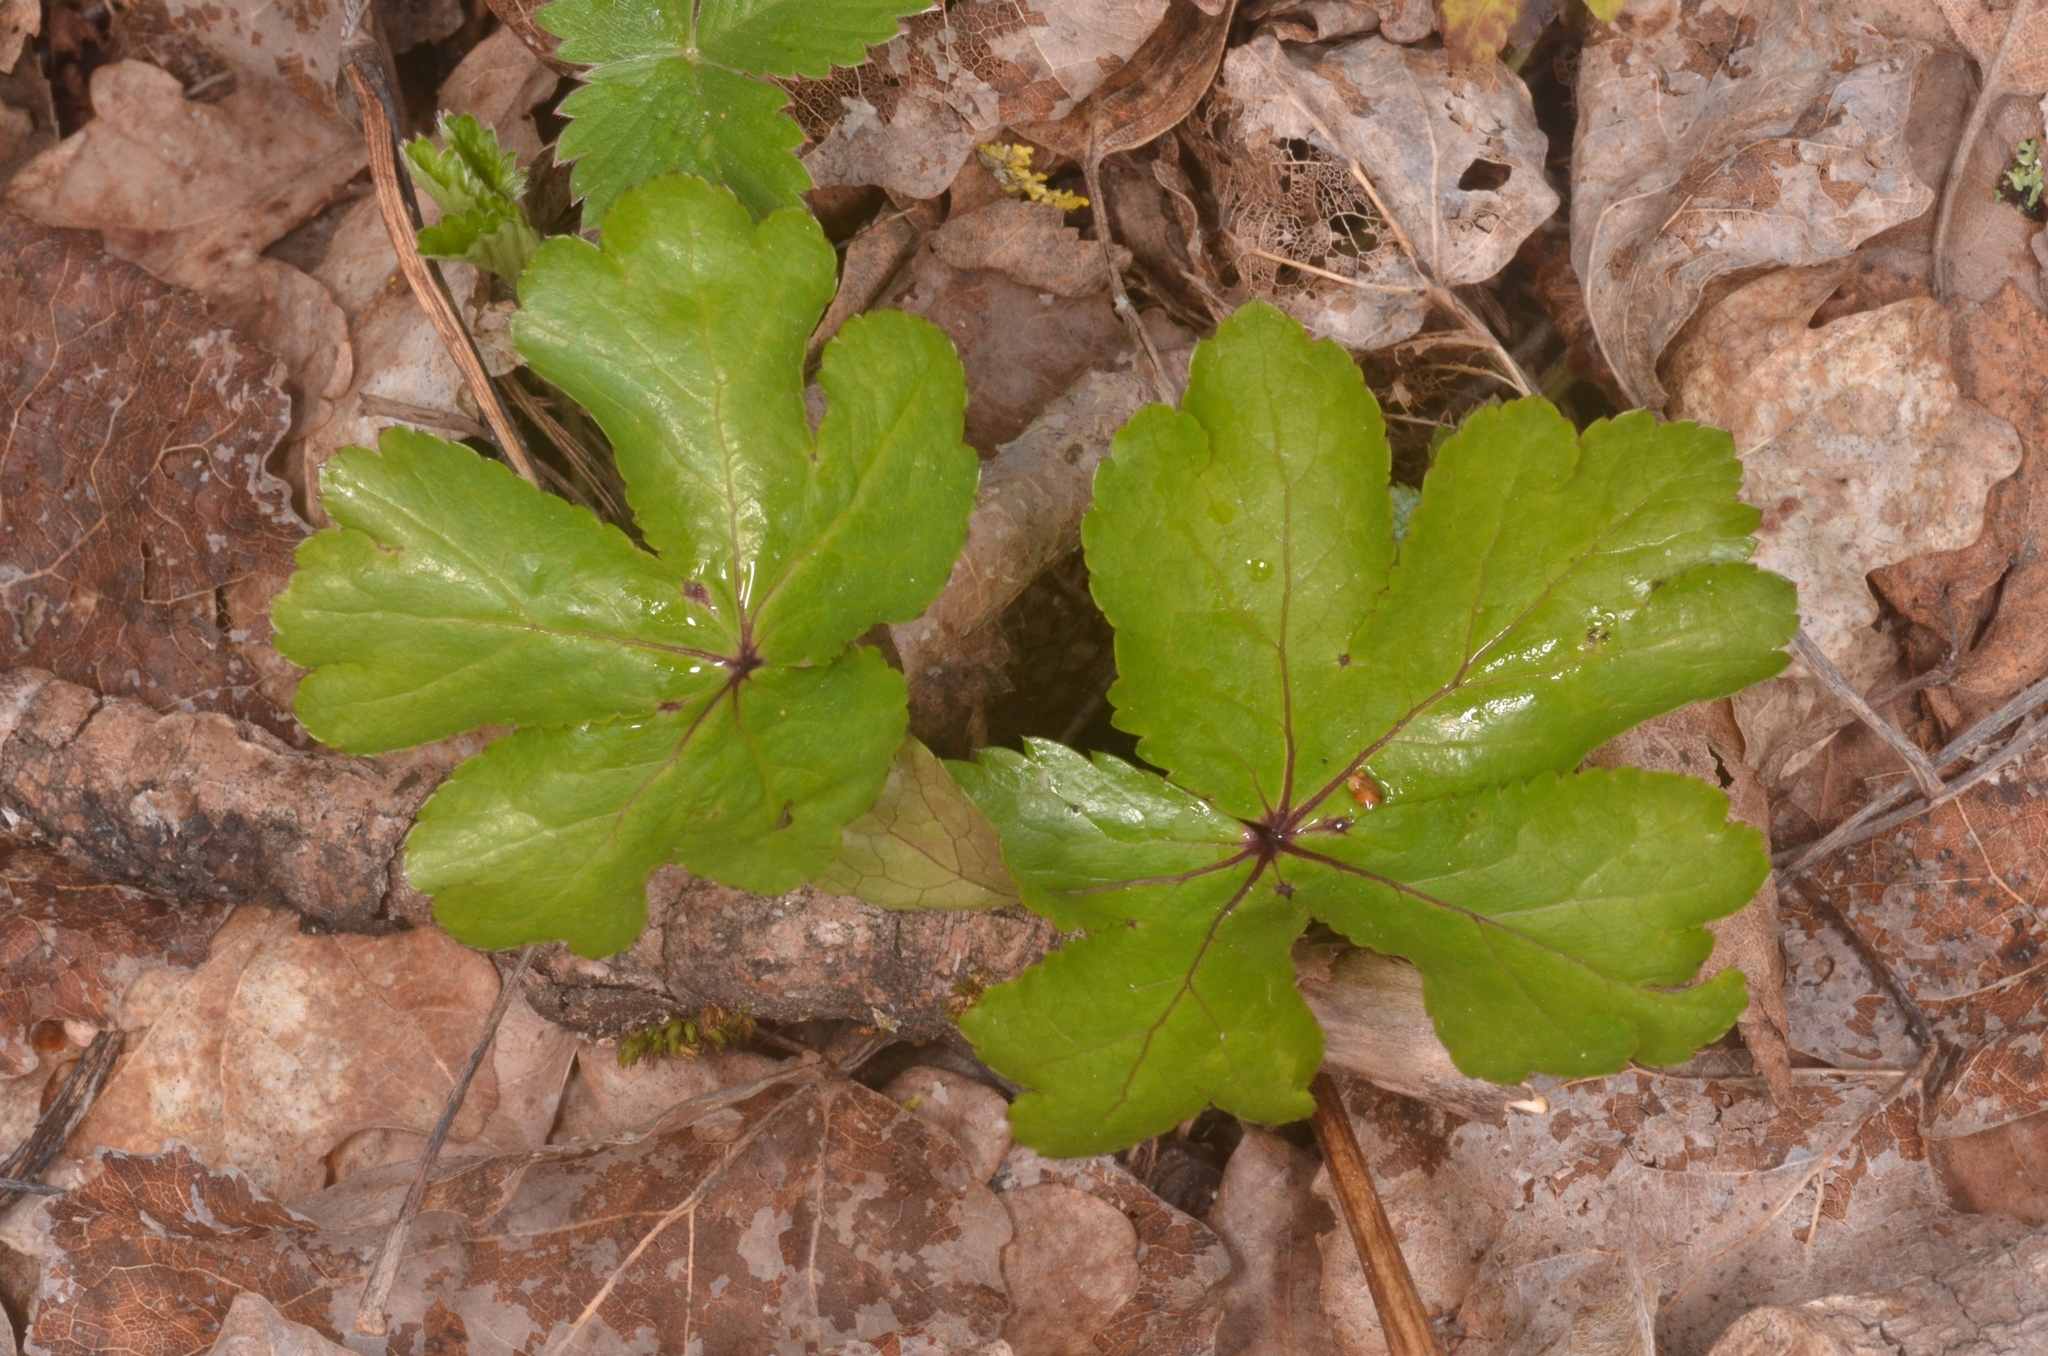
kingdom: Plantae
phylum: Tracheophyta
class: Magnoliopsida
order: Apiales
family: Apiaceae
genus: Sanicula
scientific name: Sanicula europaea
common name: Sanicle
